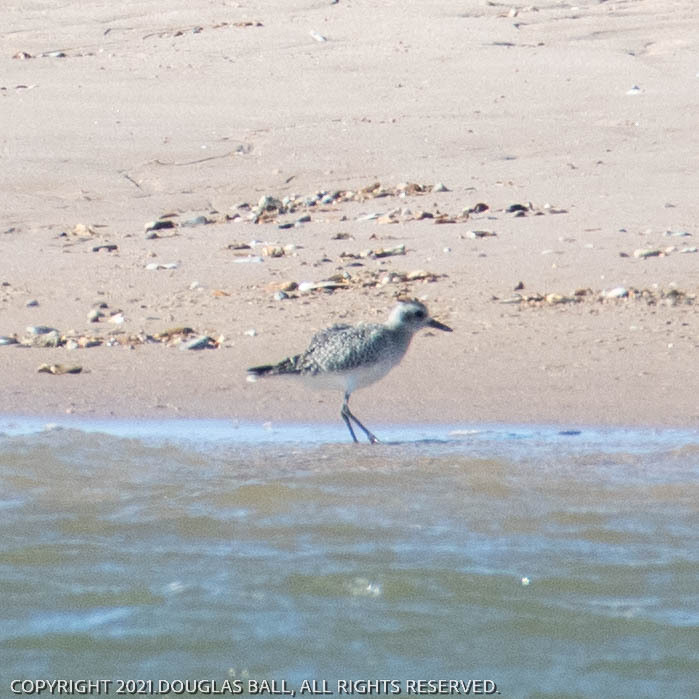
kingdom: Animalia
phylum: Chordata
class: Aves
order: Charadriiformes
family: Charadriidae
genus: Pluvialis
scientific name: Pluvialis squatarola
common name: Grey plover
